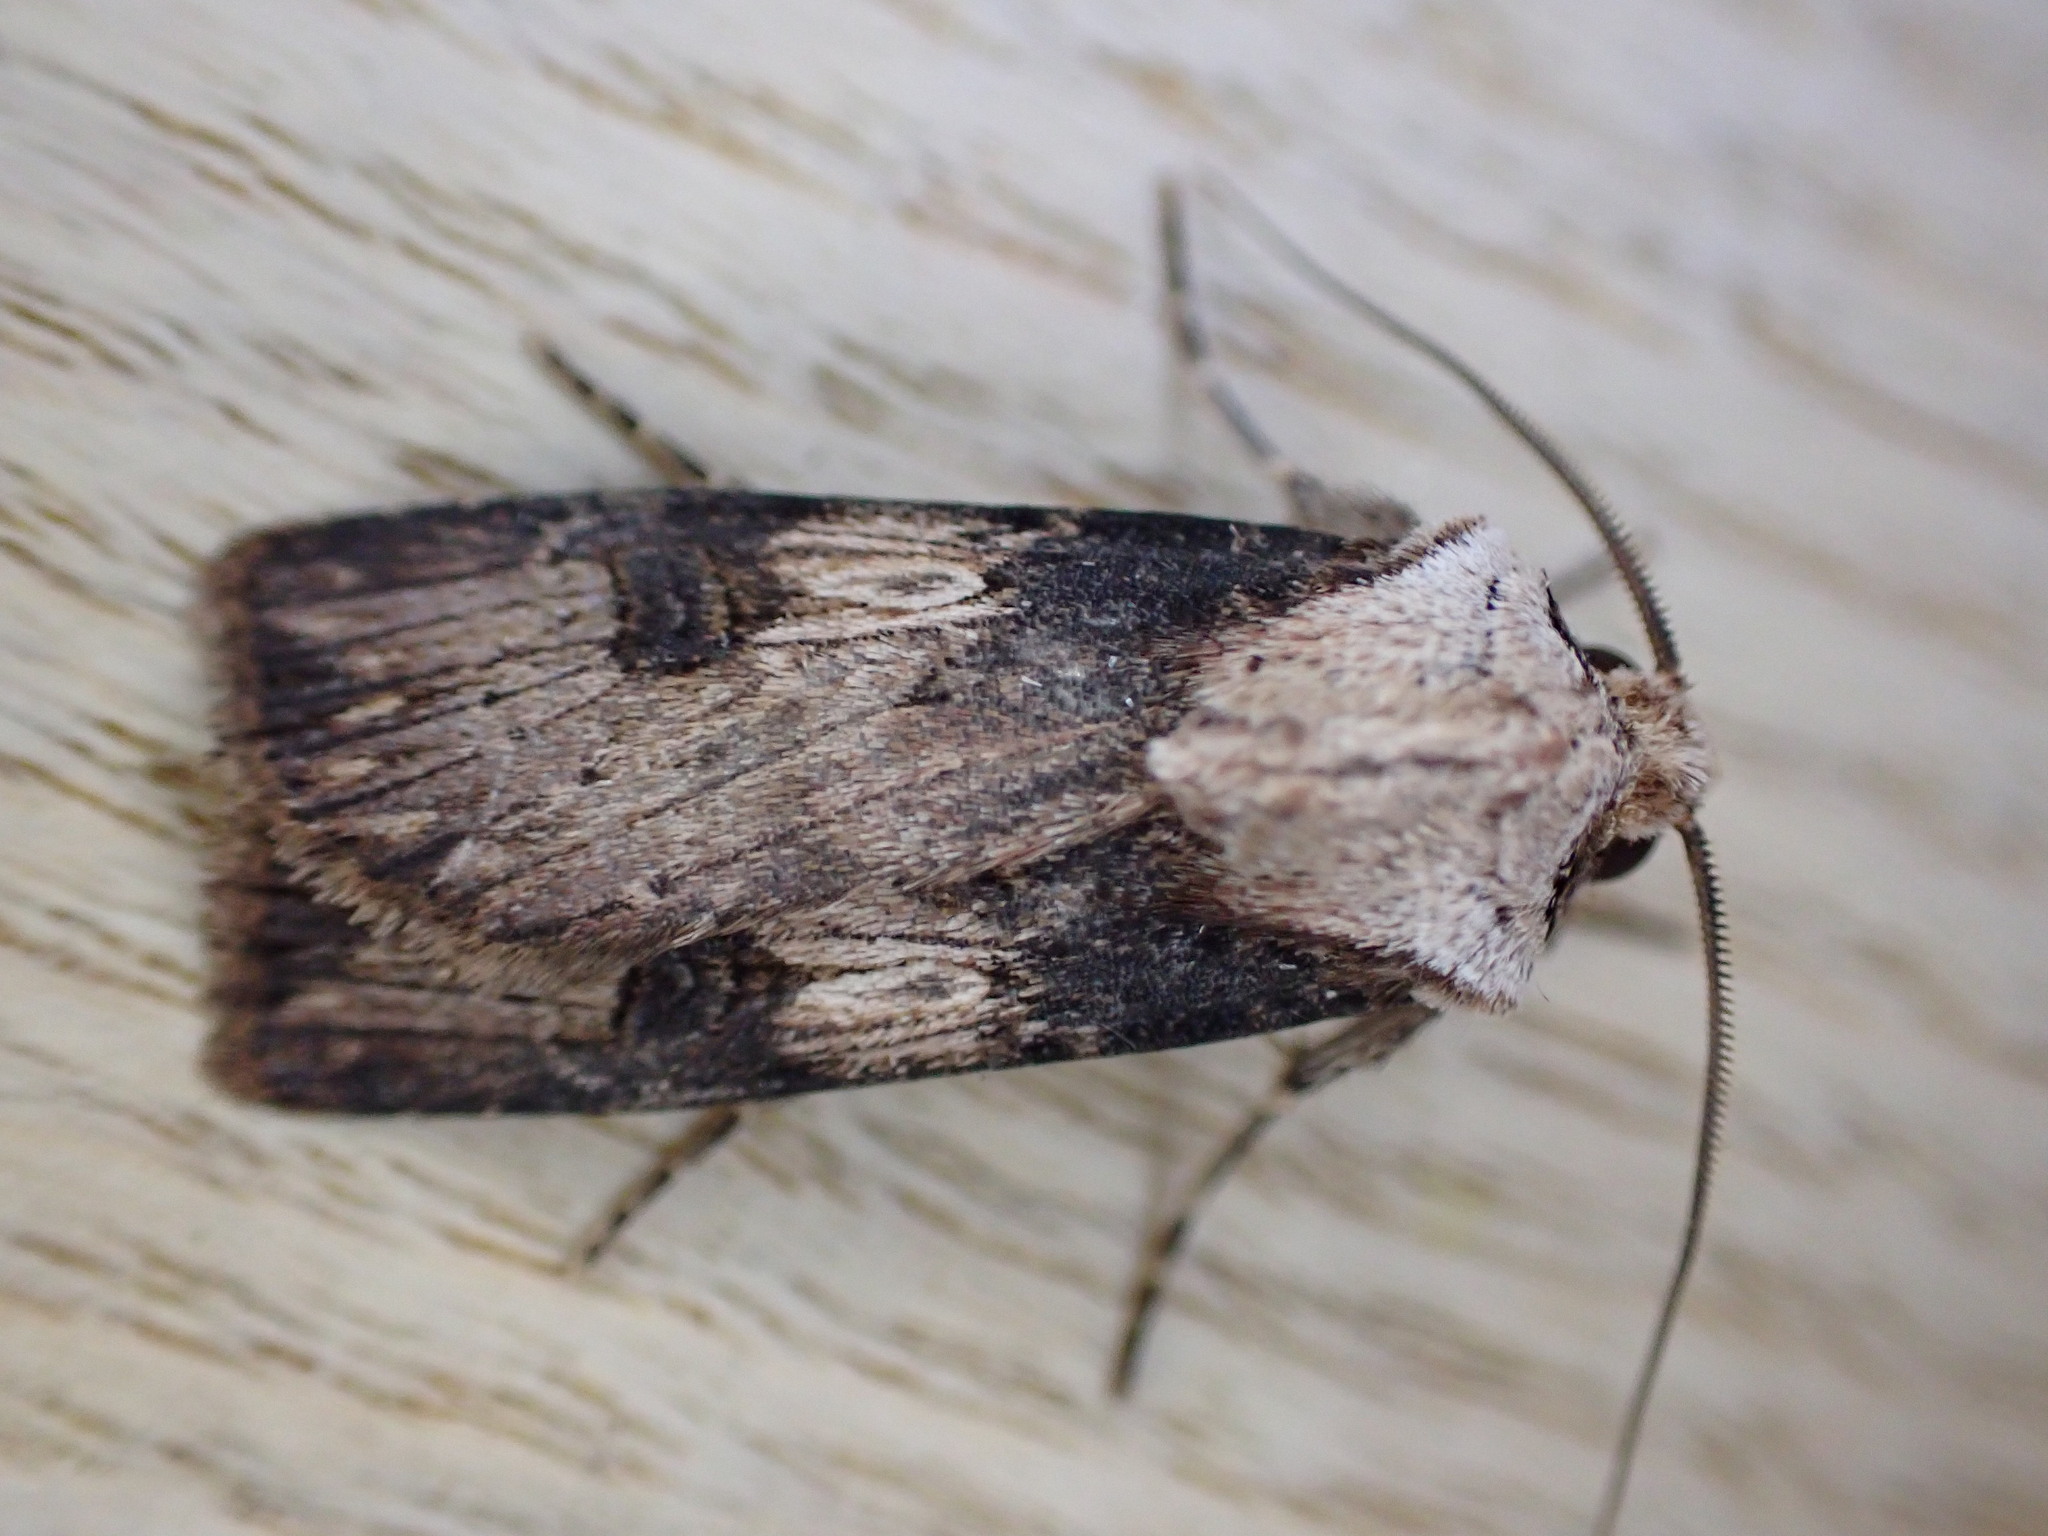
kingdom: Animalia
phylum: Arthropoda
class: Insecta
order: Lepidoptera
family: Noctuidae
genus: Agrotis
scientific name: Agrotis puta
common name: Shuttle-shaped dart
